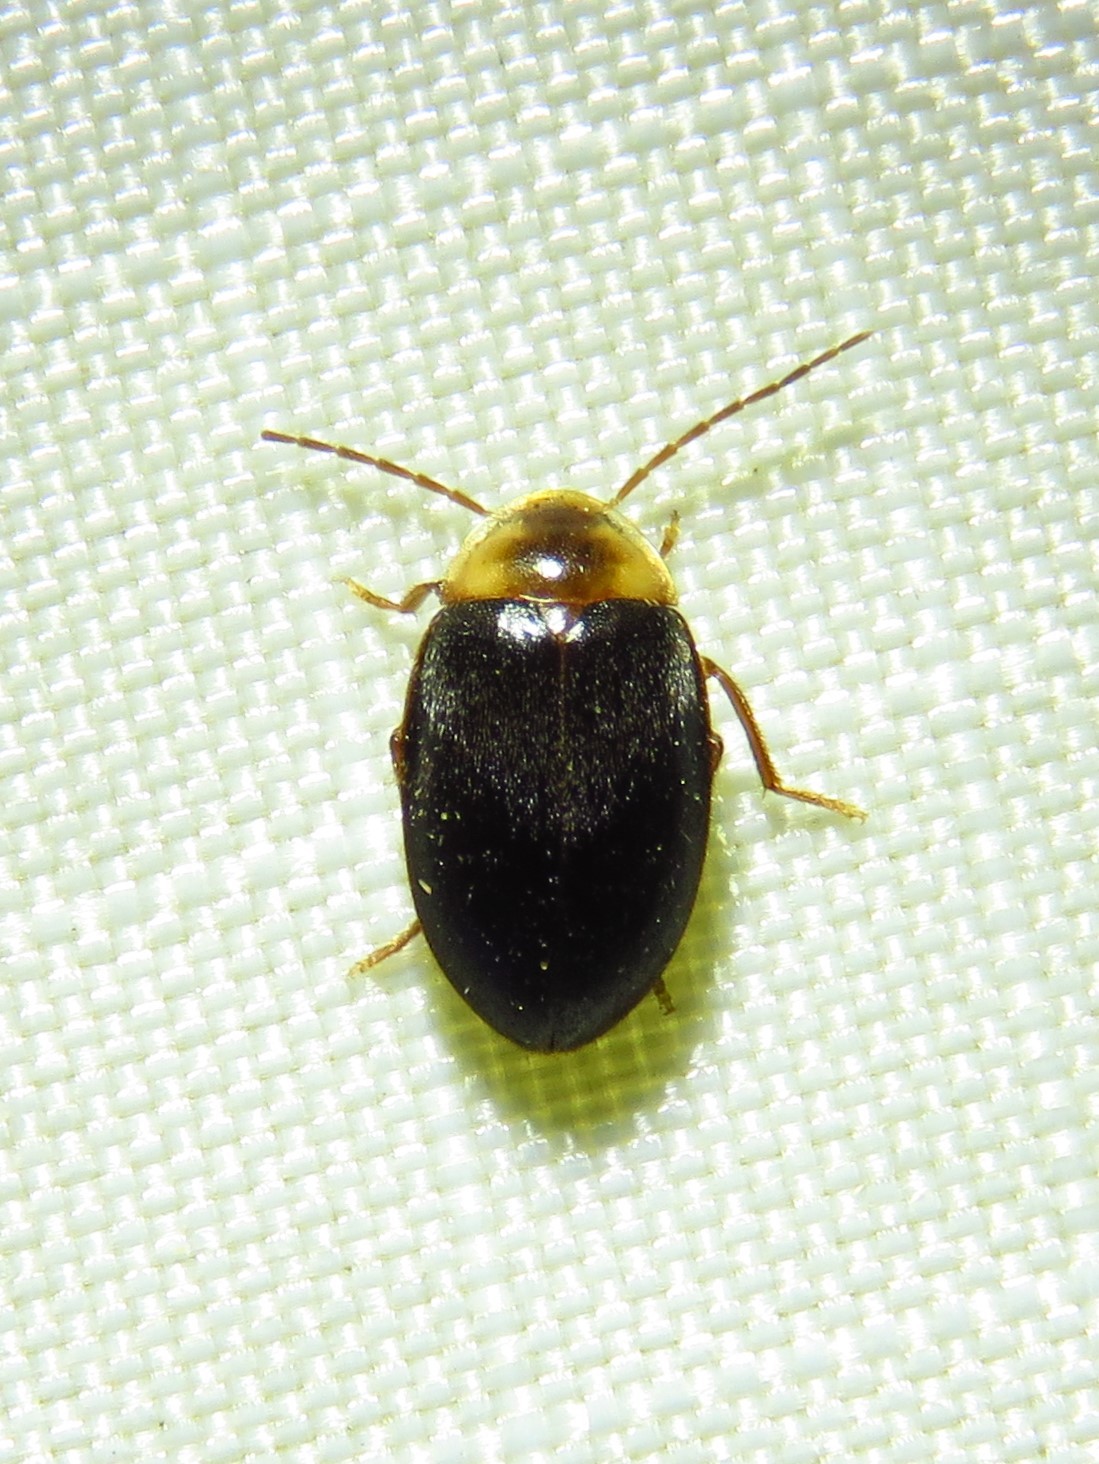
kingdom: Animalia
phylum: Arthropoda
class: Insecta
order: Coleoptera
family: Scirtidae
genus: Sacodes
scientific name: Sacodes pulchella
